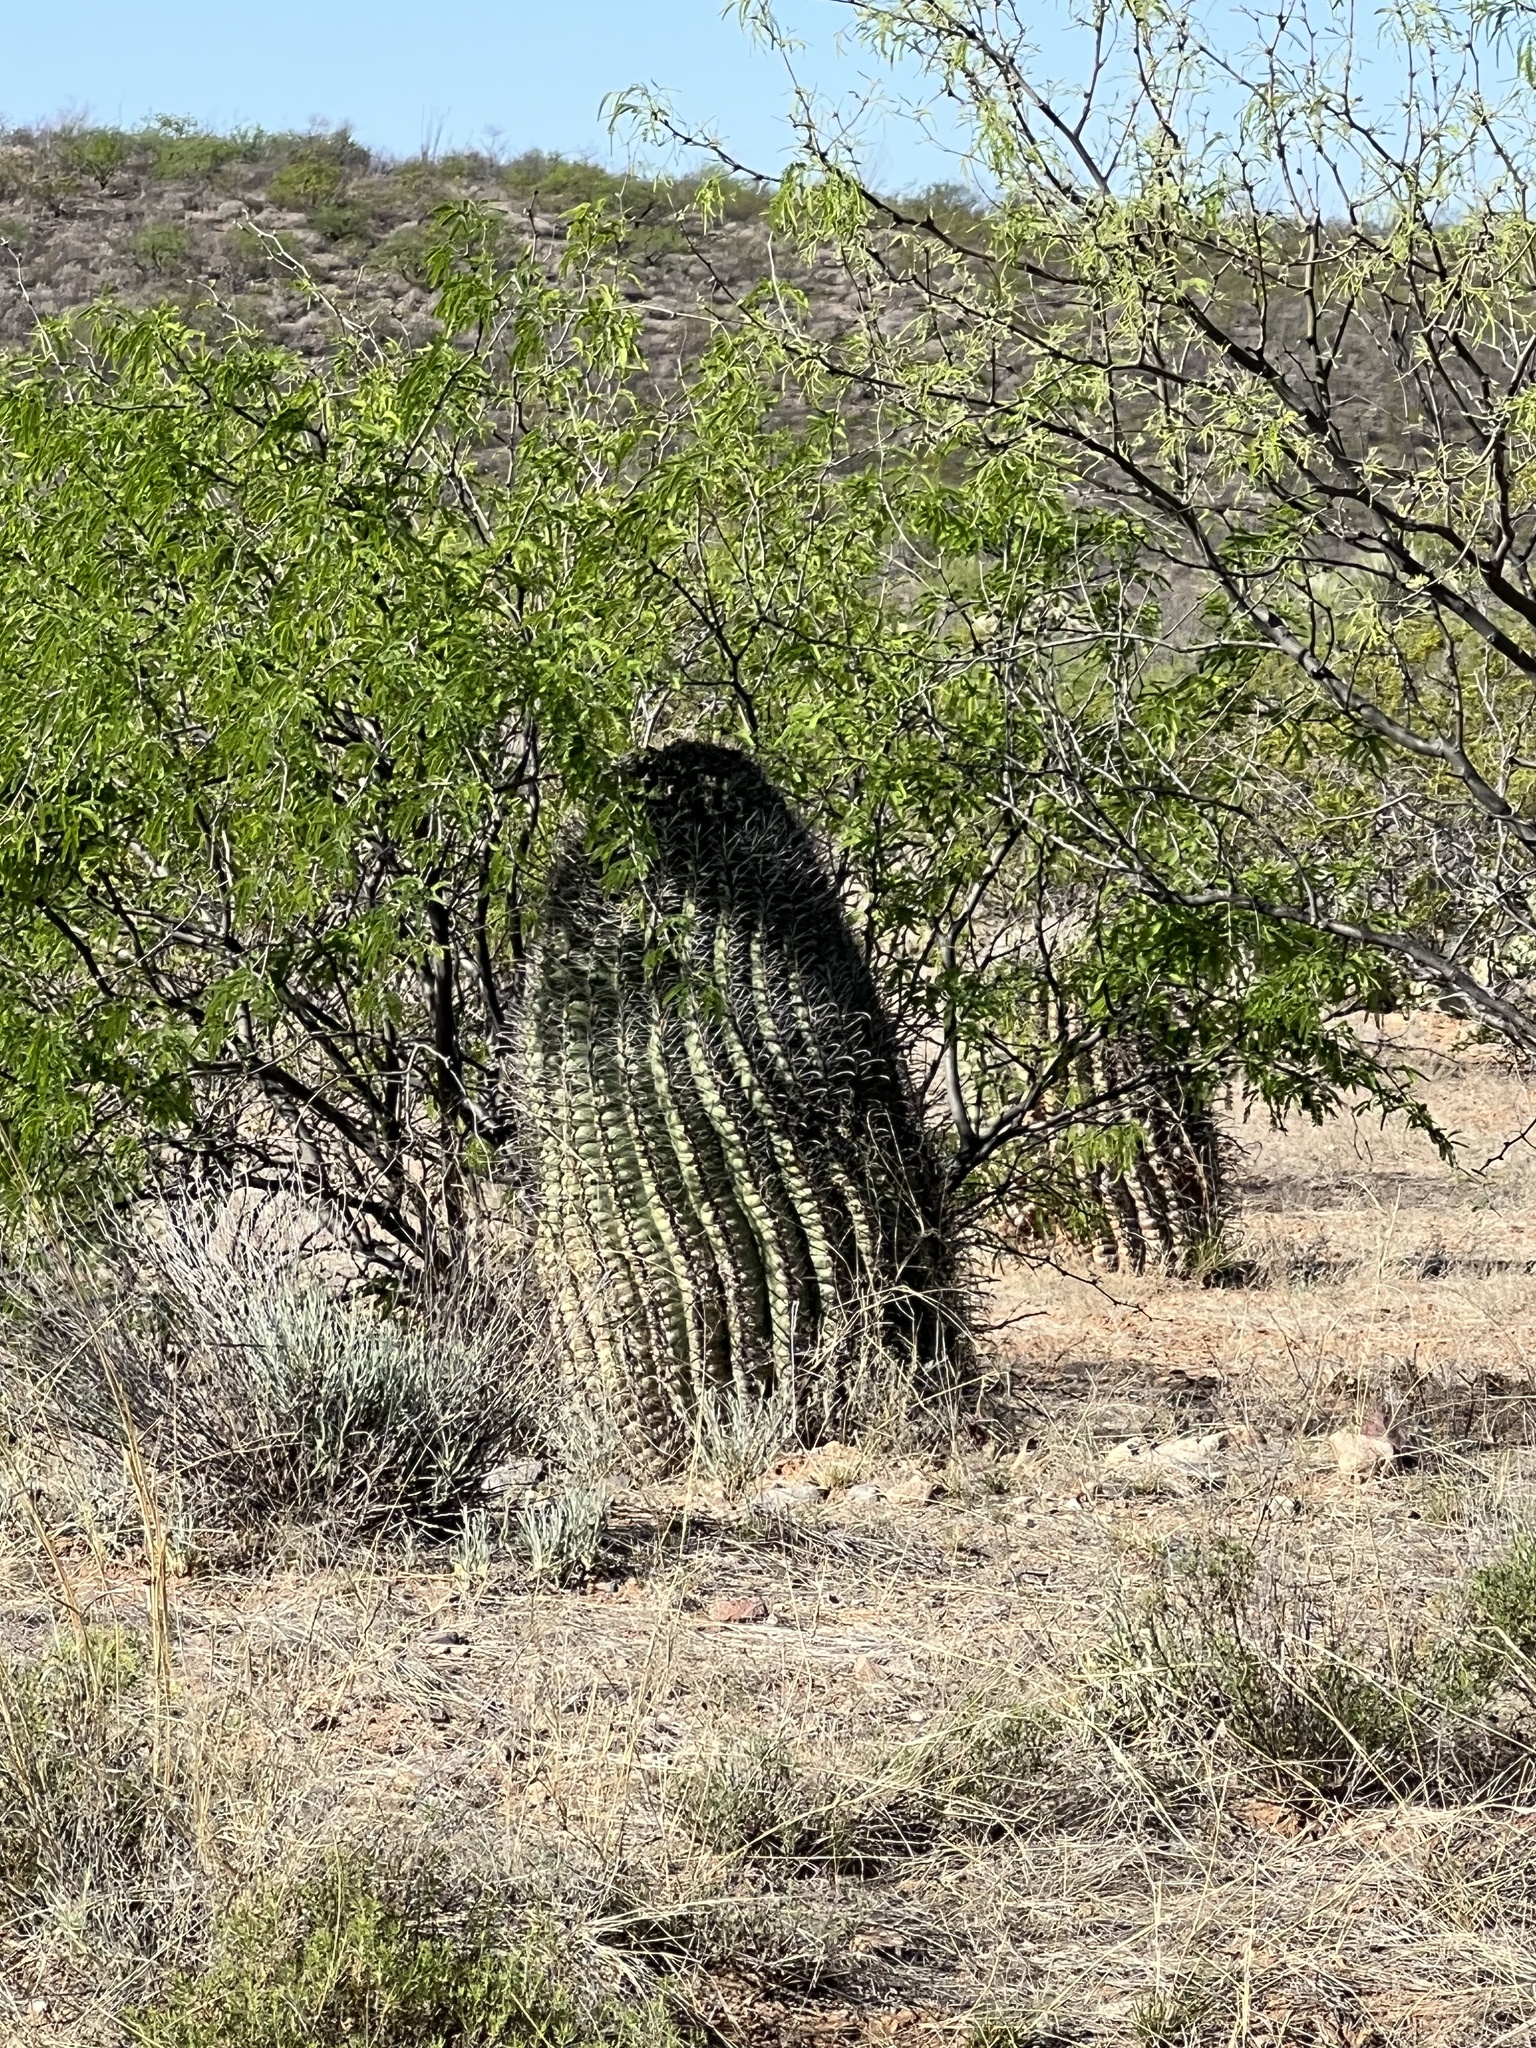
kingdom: Plantae
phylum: Tracheophyta
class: Magnoliopsida
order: Caryophyllales
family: Cactaceae
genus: Ferocactus
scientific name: Ferocactus wislizeni
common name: Candy barrel cactus
